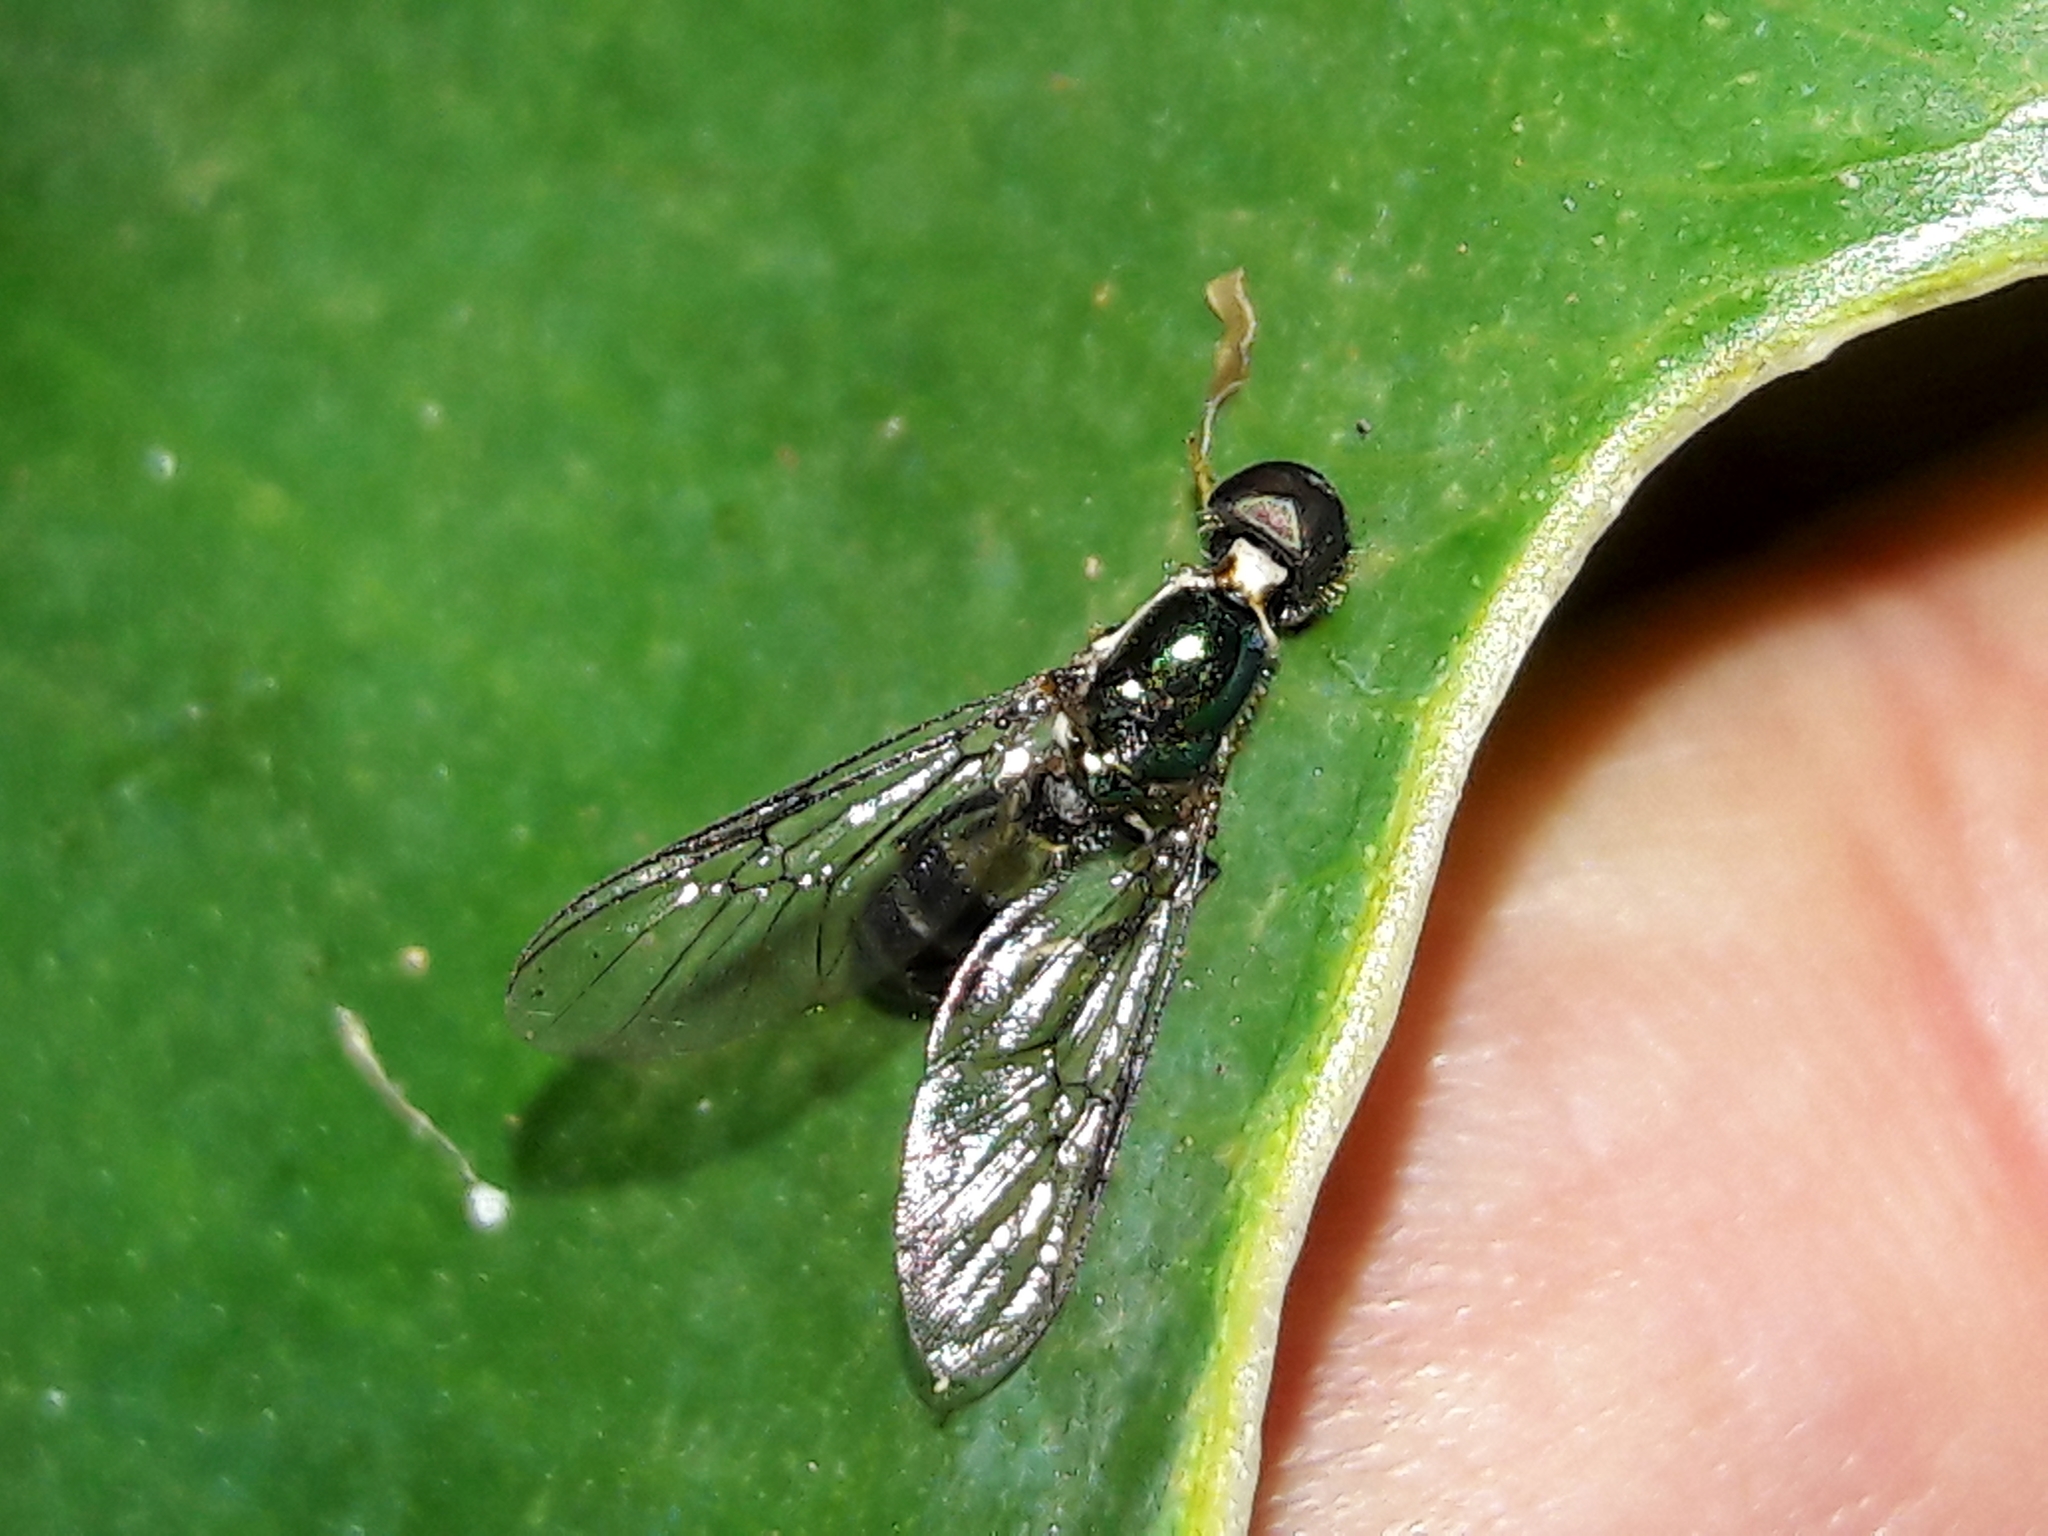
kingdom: Animalia
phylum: Arthropoda
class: Insecta
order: Diptera
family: Stratiomyidae
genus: Sargus
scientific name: Sargus fasciatus
